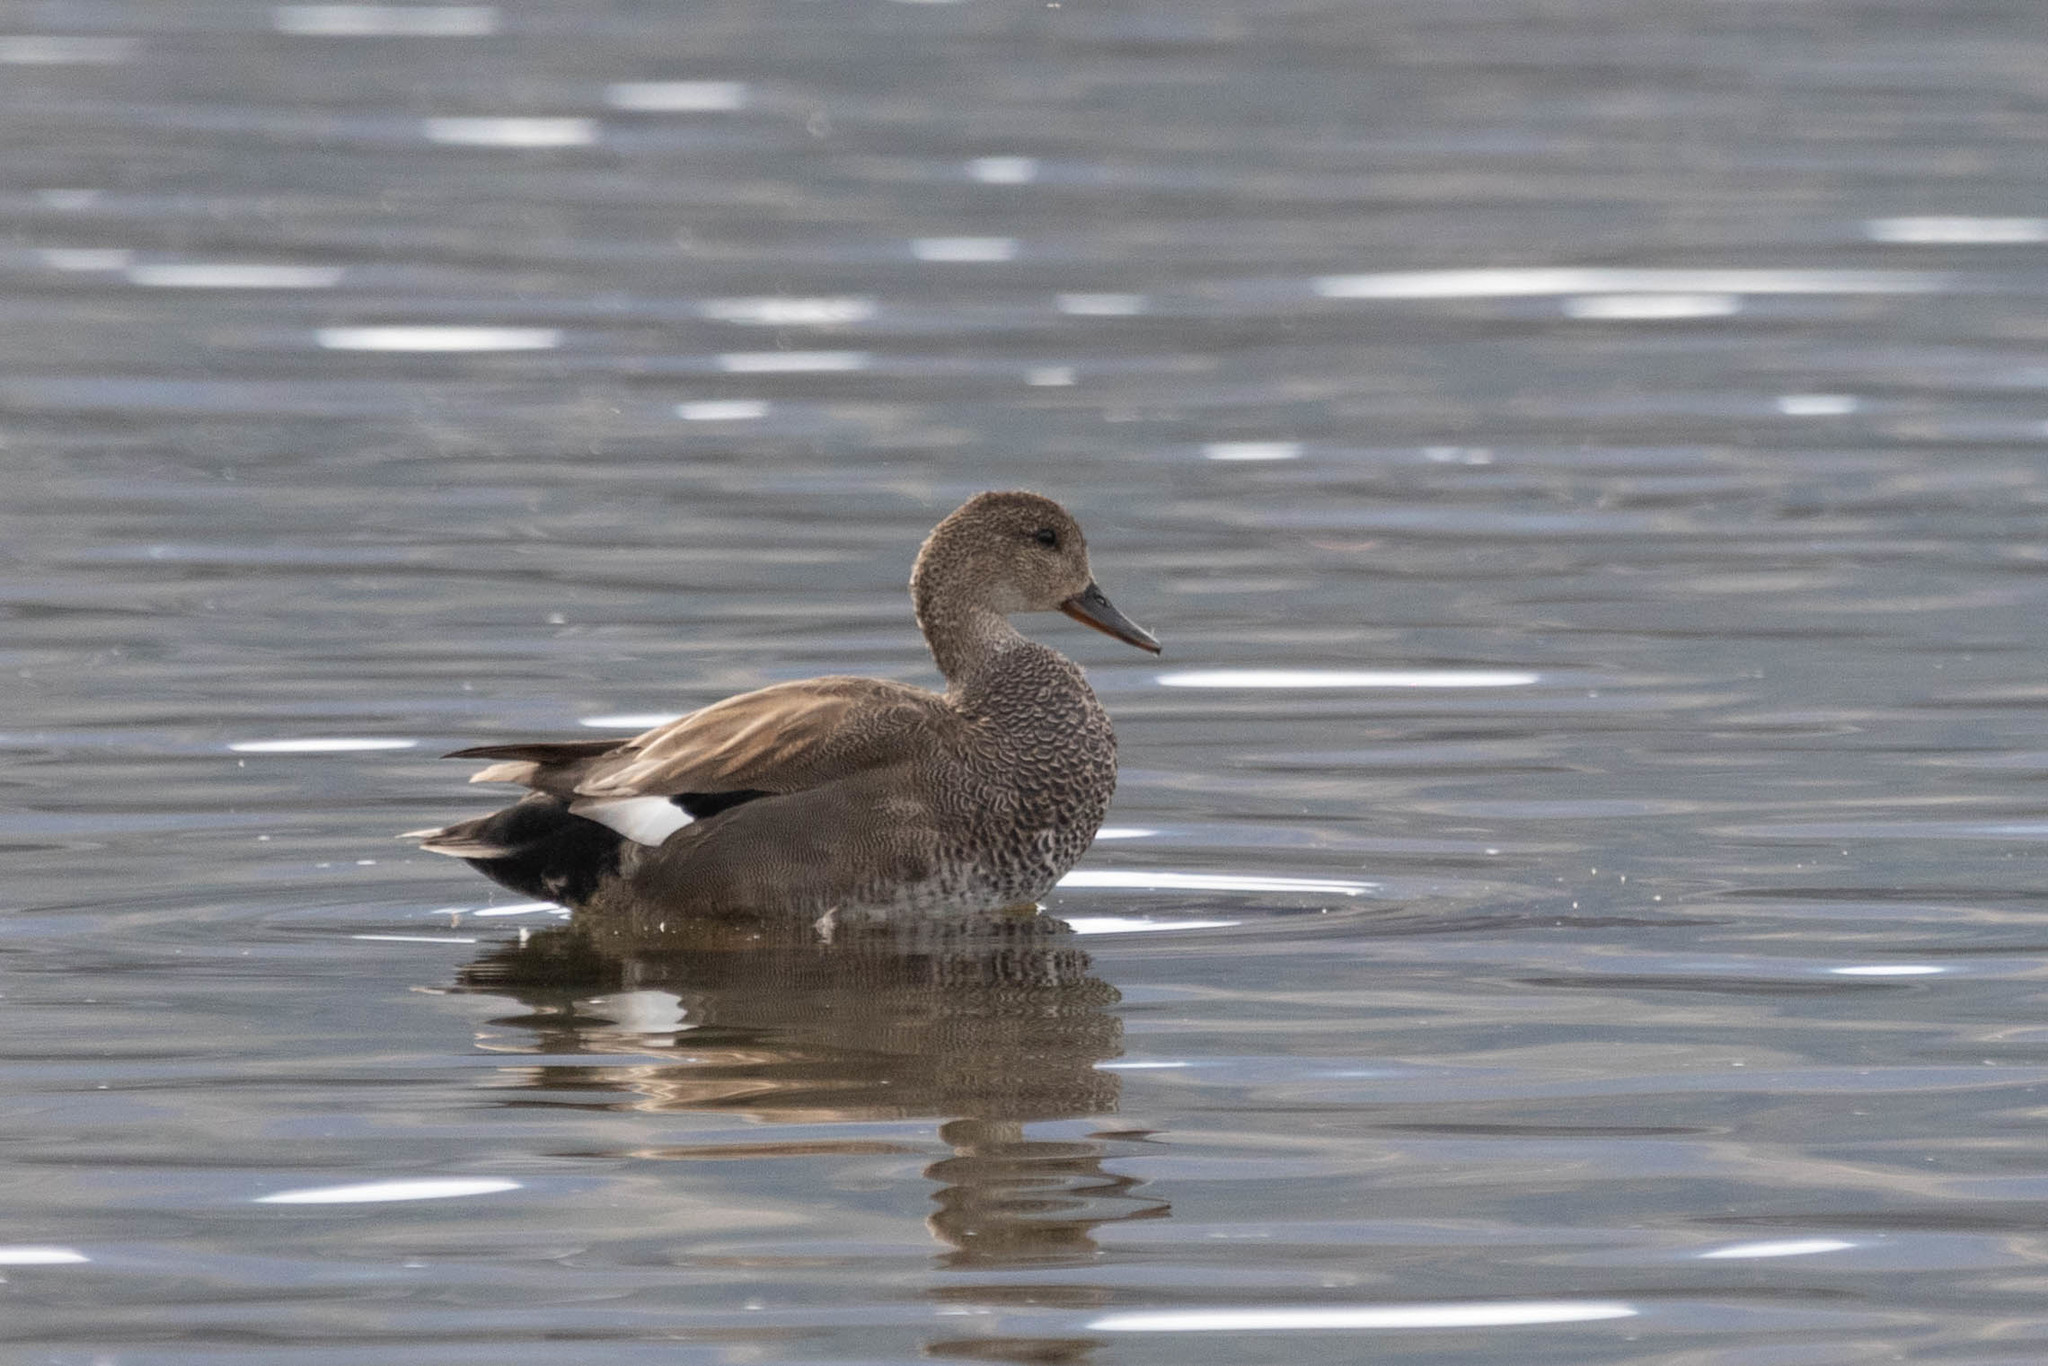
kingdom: Animalia
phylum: Chordata
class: Aves
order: Anseriformes
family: Anatidae
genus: Mareca
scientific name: Mareca strepera
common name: Gadwall
